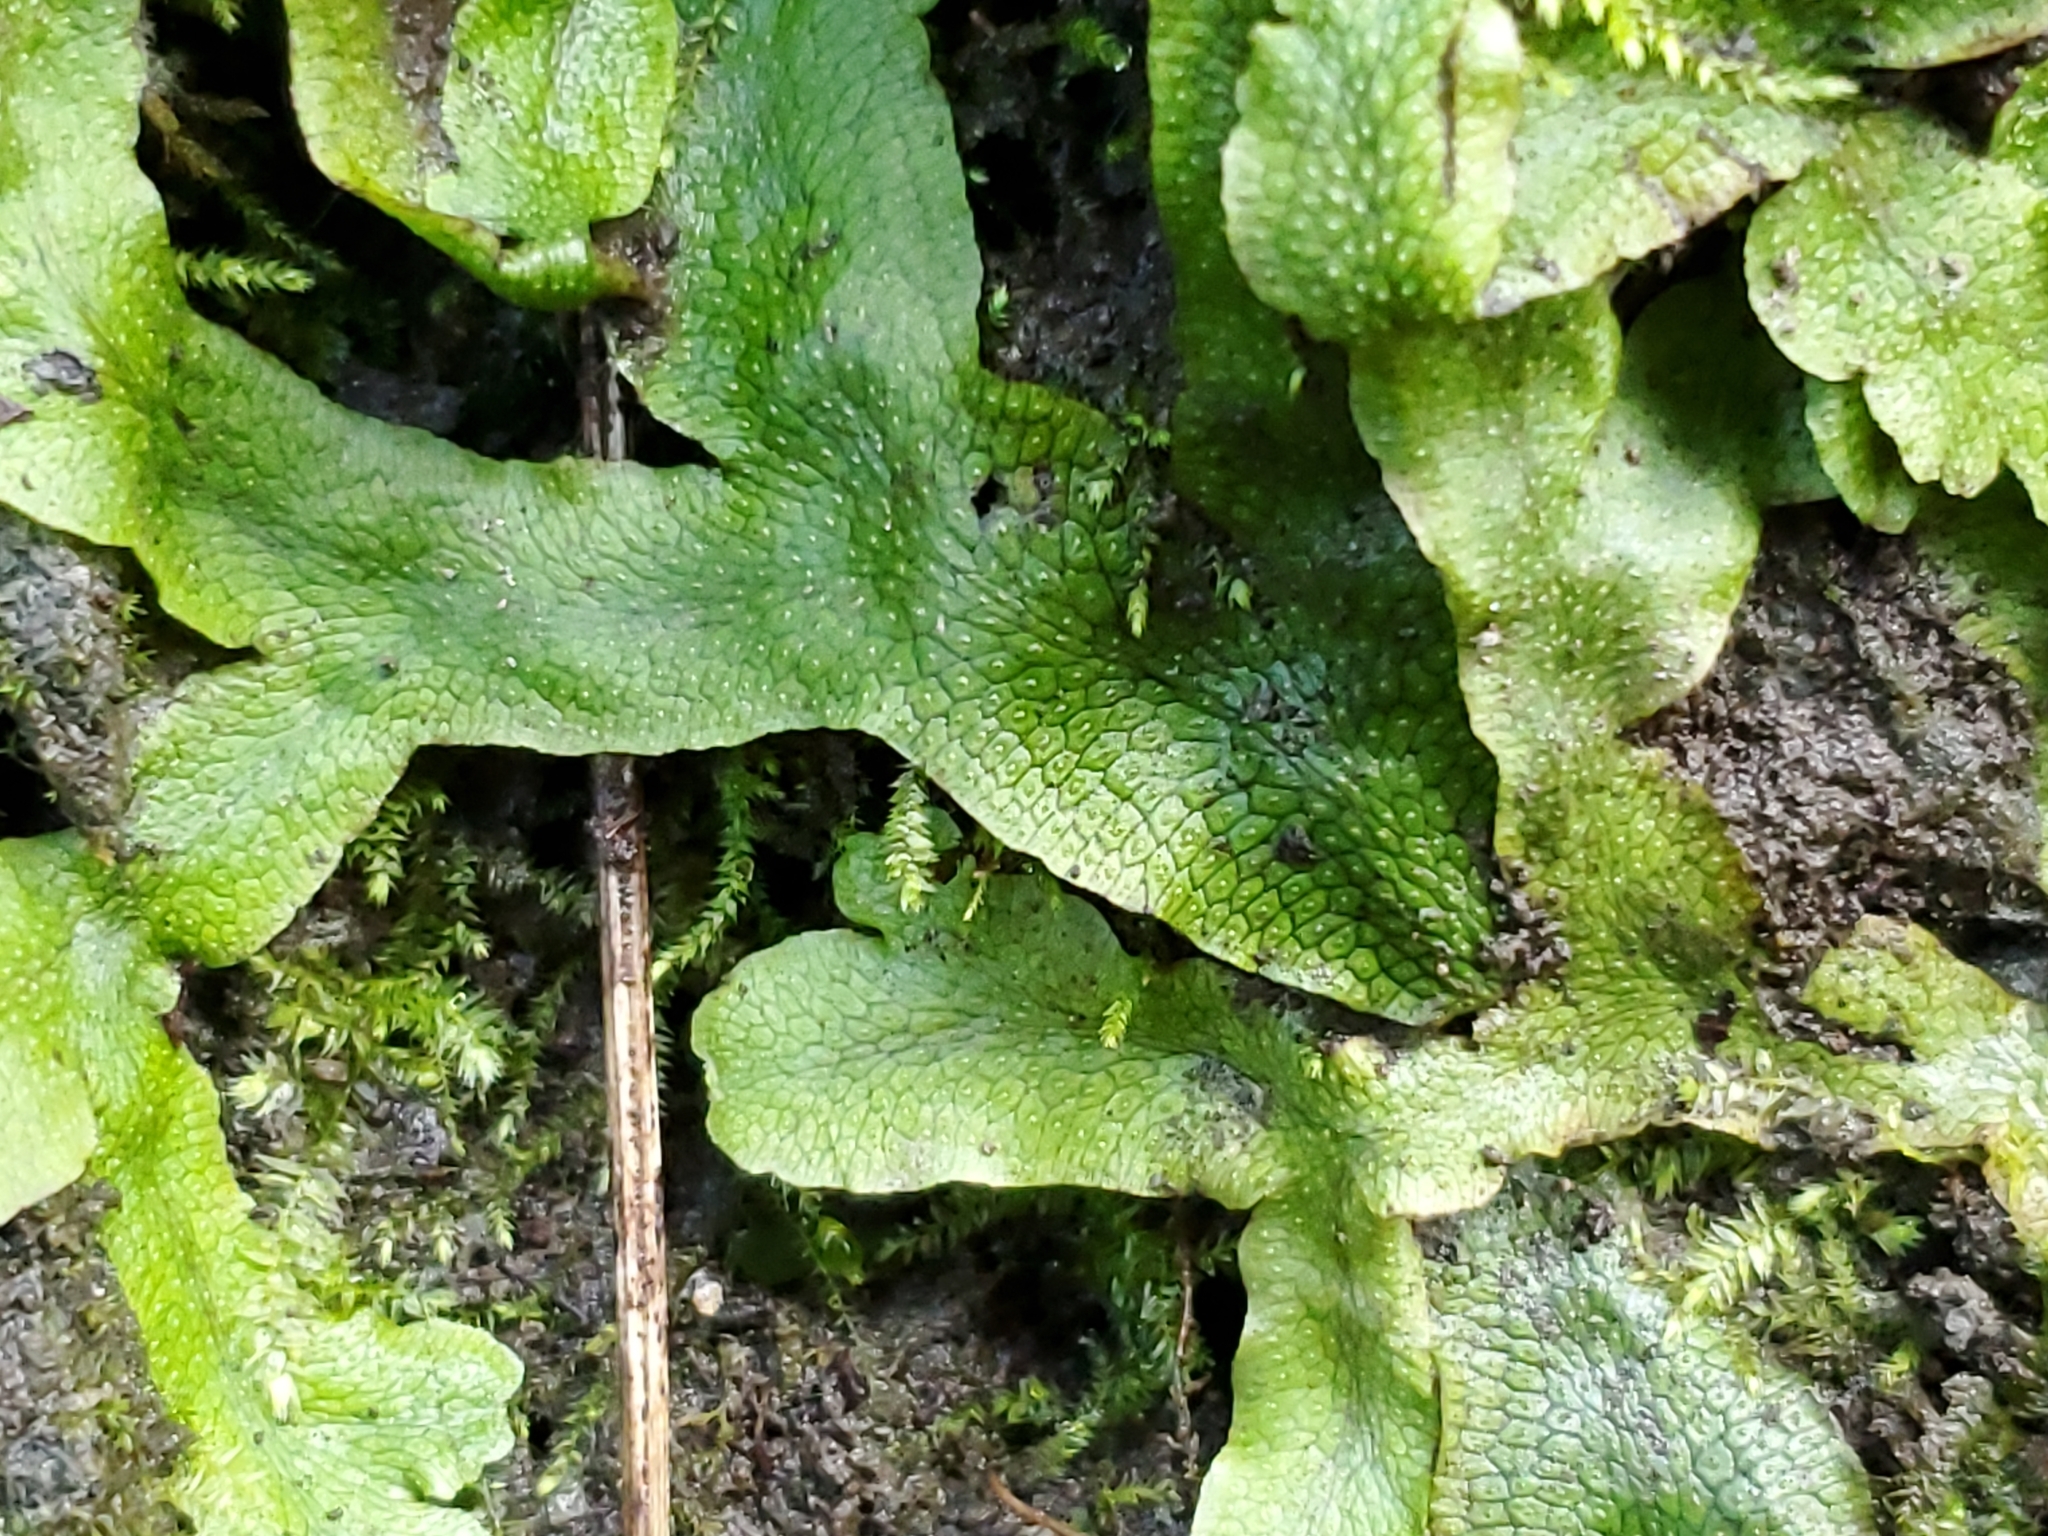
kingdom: Plantae
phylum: Marchantiophyta
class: Marchantiopsida
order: Marchantiales
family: Conocephalaceae
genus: Conocephalum
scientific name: Conocephalum salebrosum
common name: Cat-tongue liverwort
